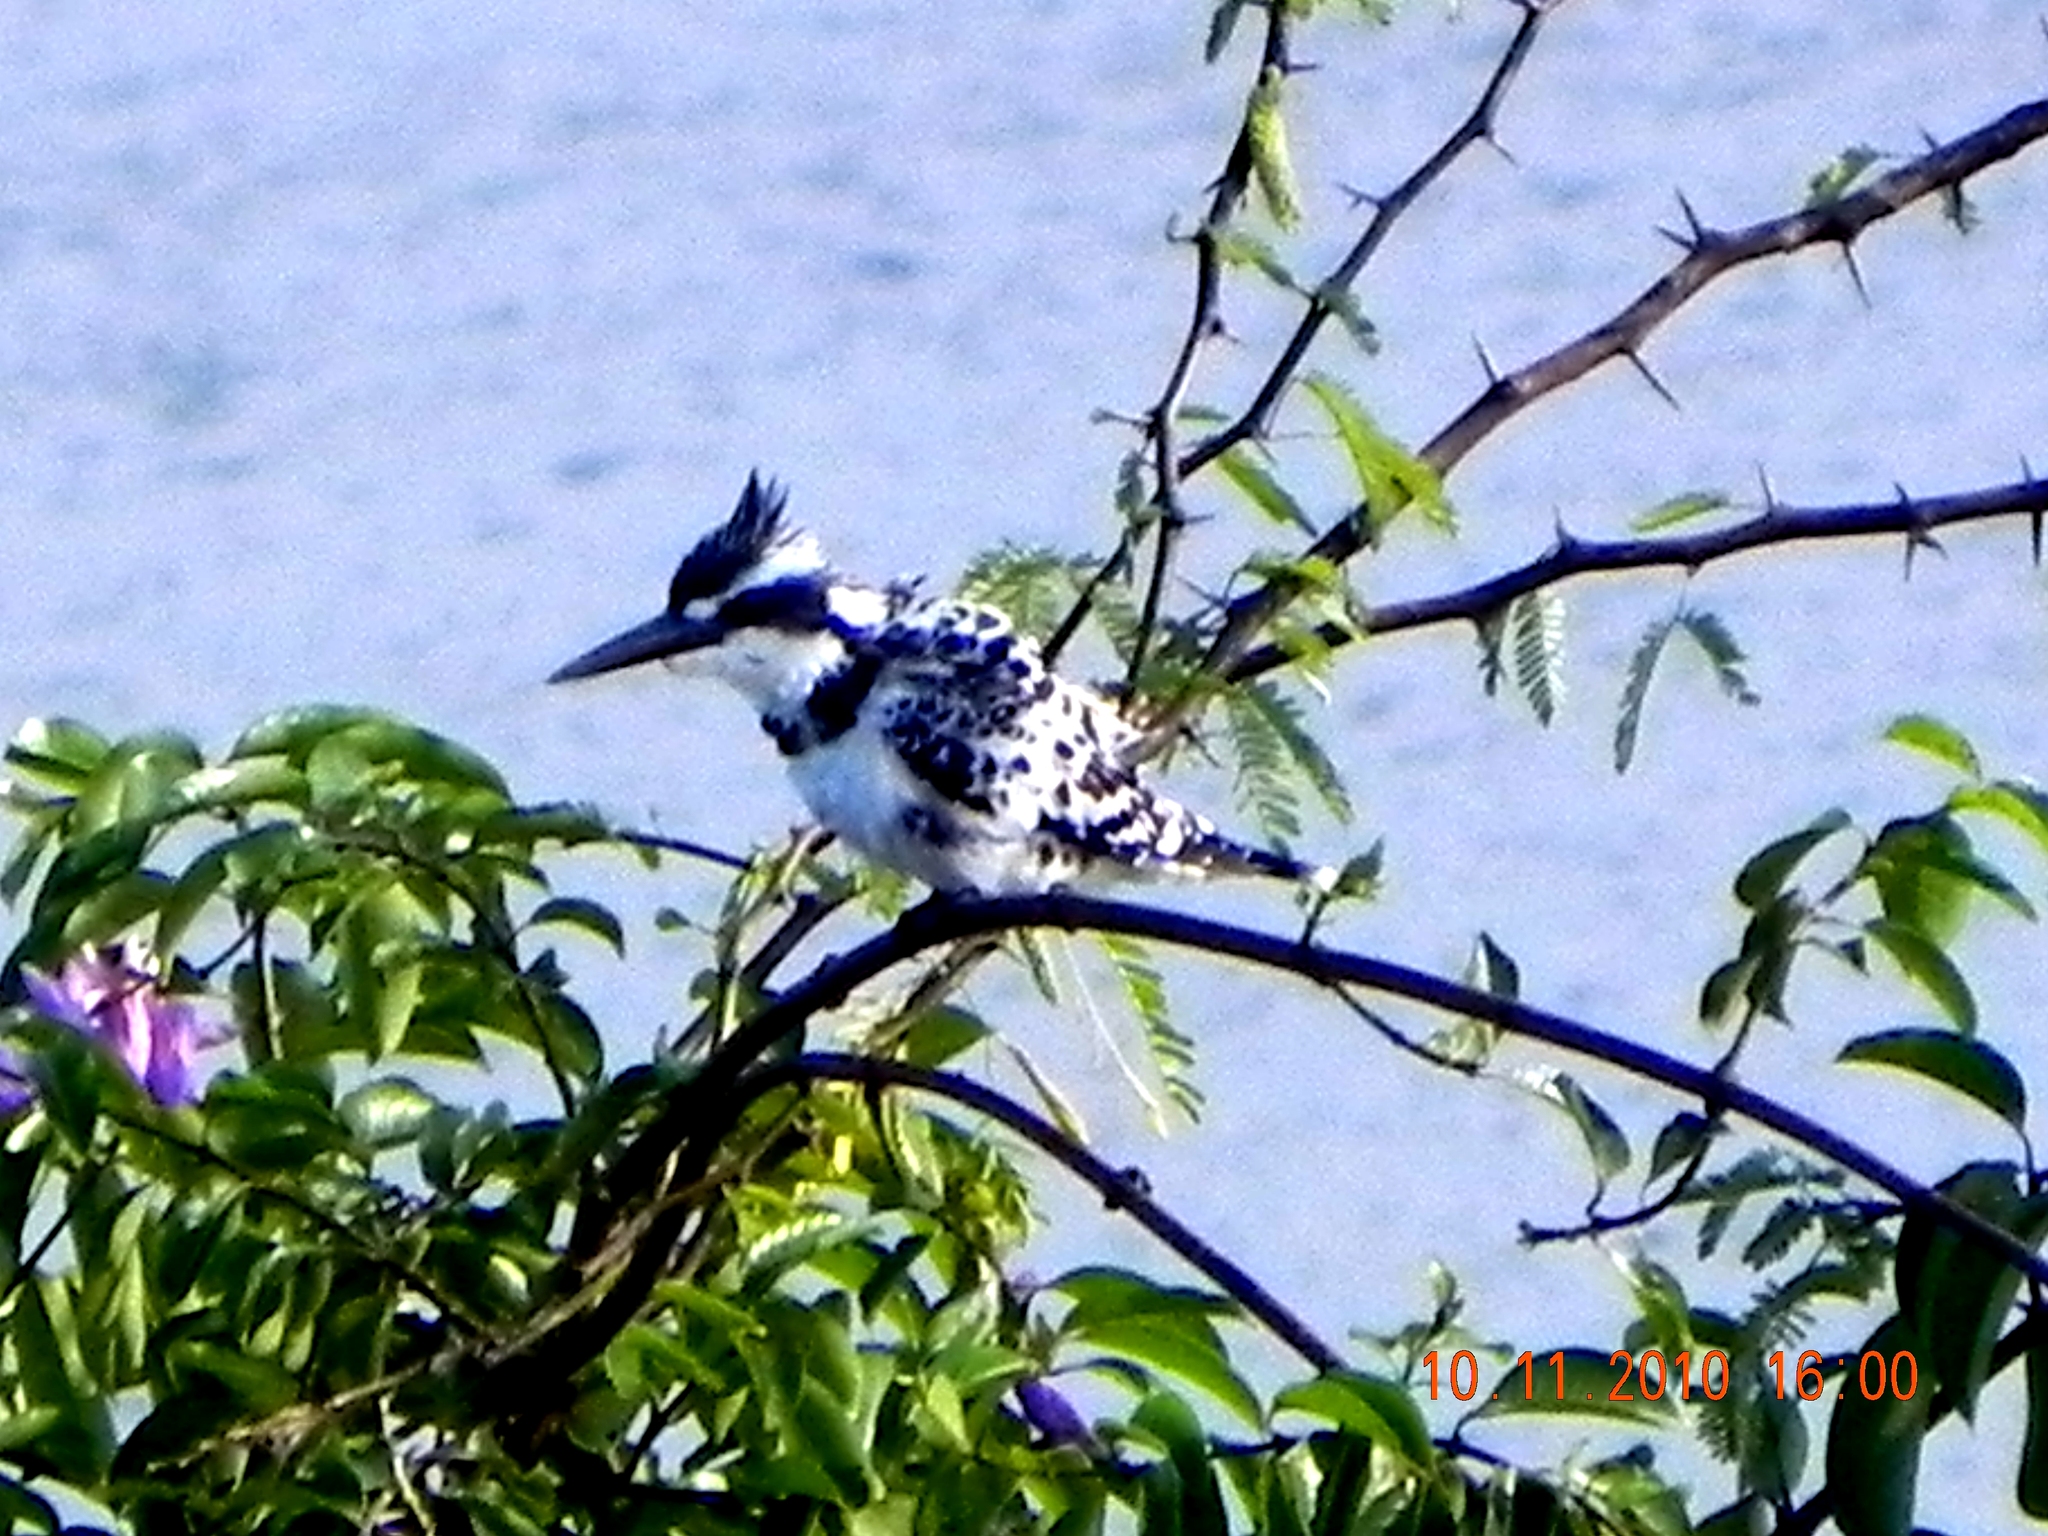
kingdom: Animalia
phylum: Chordata
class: Aves
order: Coraciiformes
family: Alcedinidae
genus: Ceryle
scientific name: Ceryle rudis
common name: Pied kingfisher
